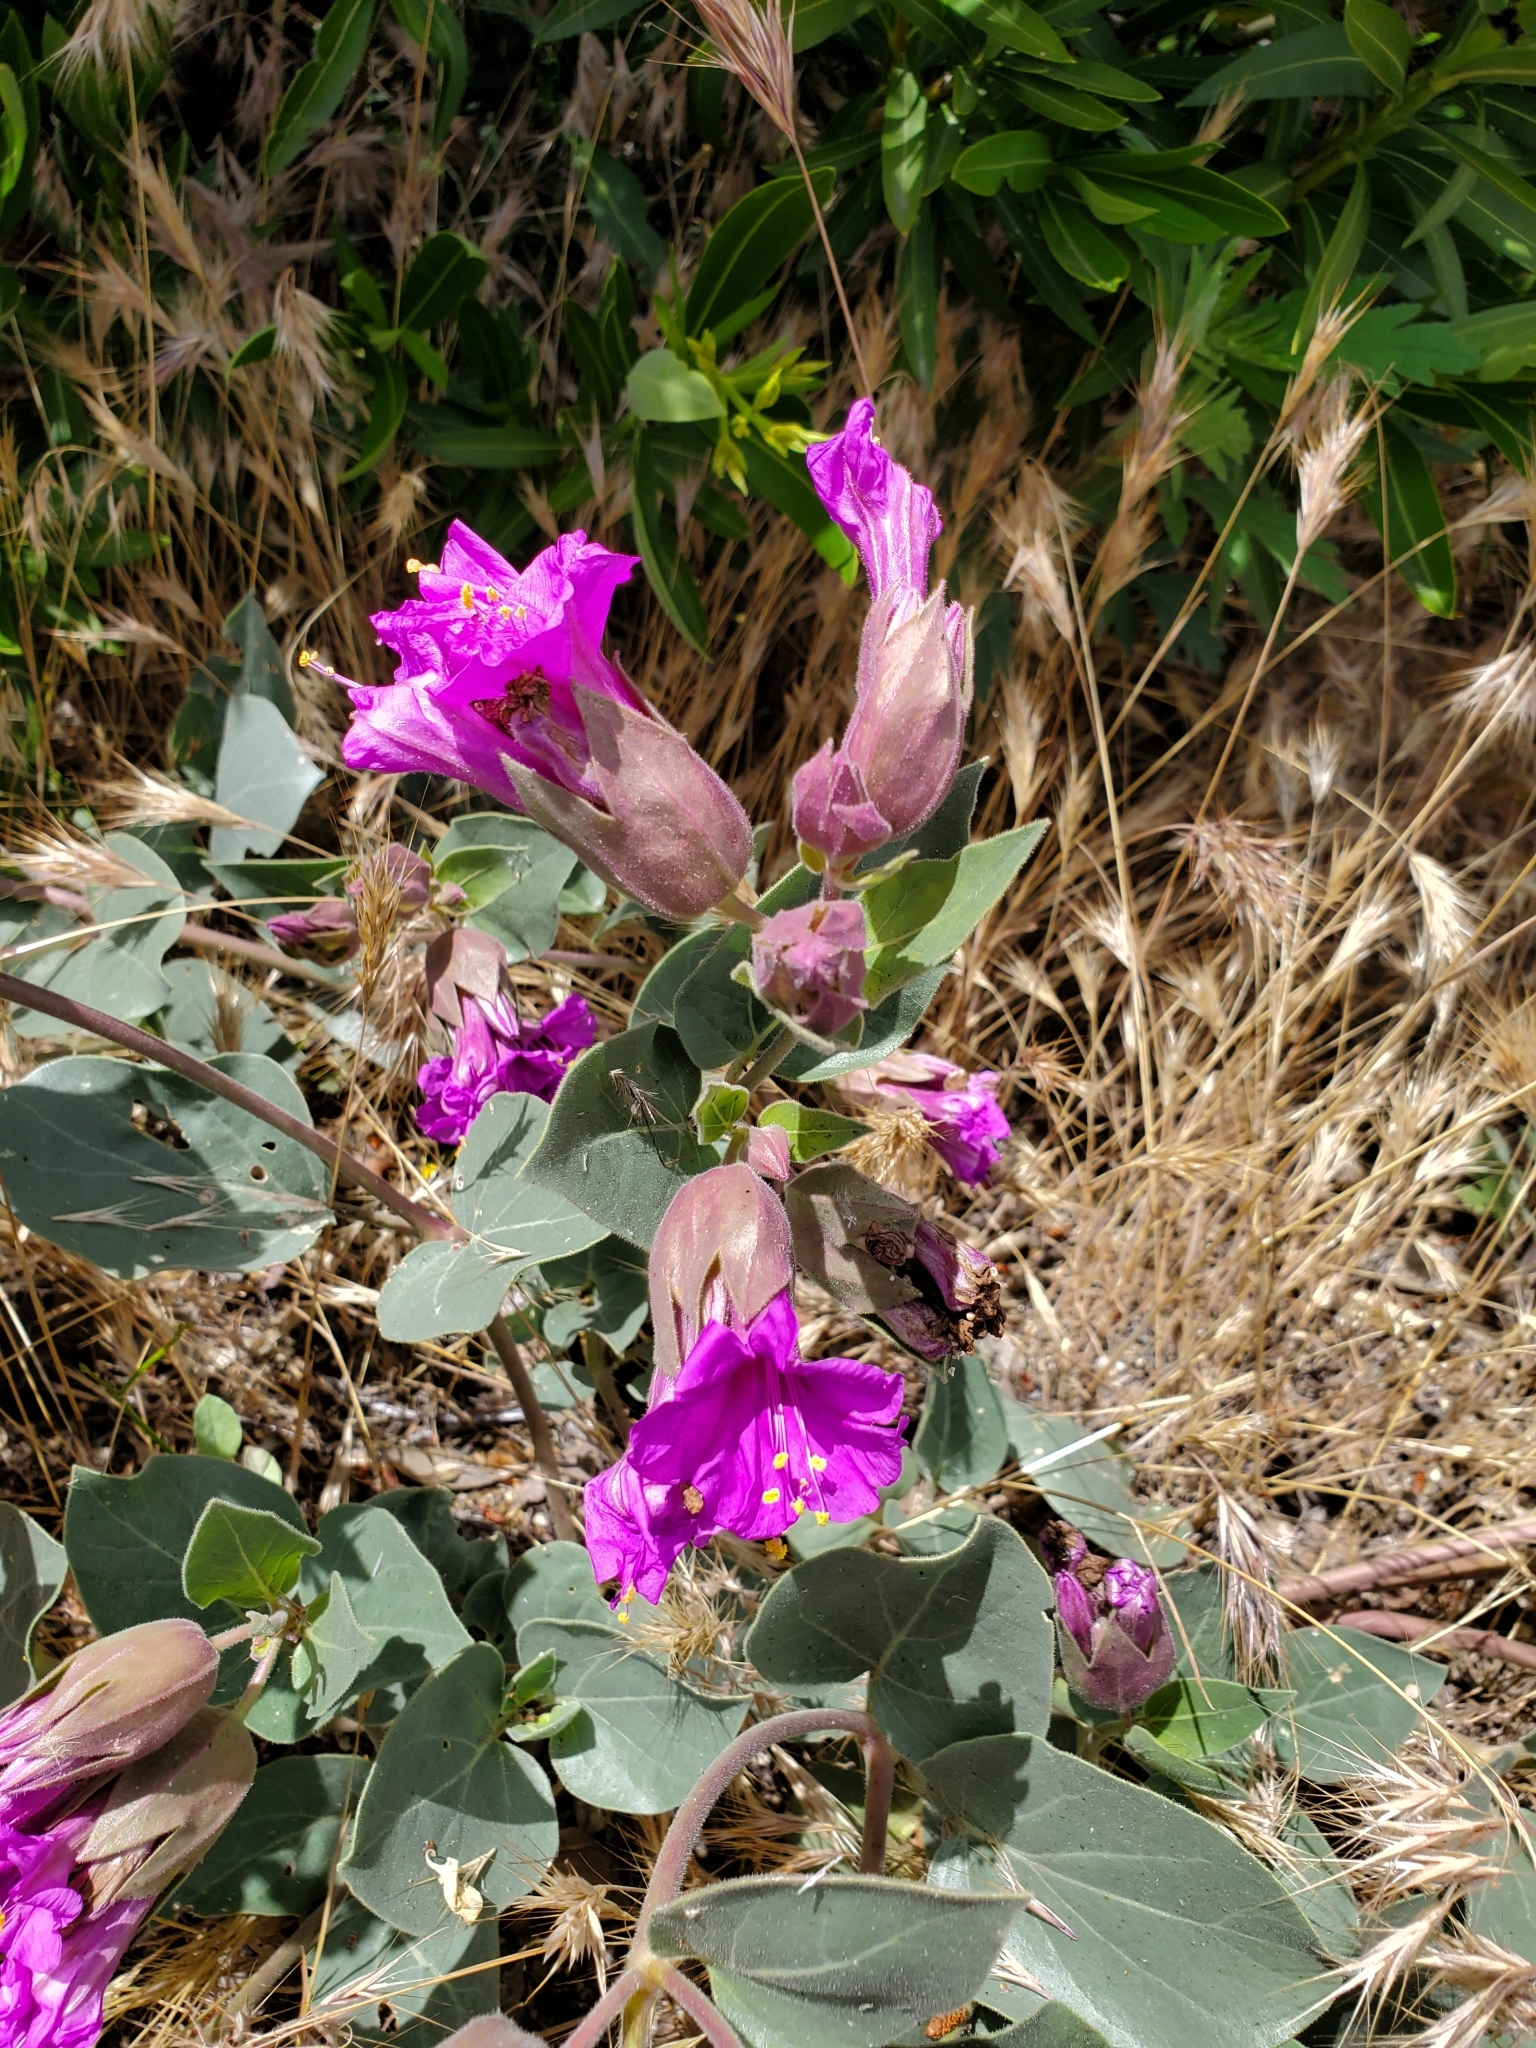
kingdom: Plantae
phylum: Tracheophyta
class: Magnoliopsida
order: Caryophyllales
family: Nyctaginaceae
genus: Mirabilis
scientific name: Mirabilis multiflora
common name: Froebel's four-o'clock
